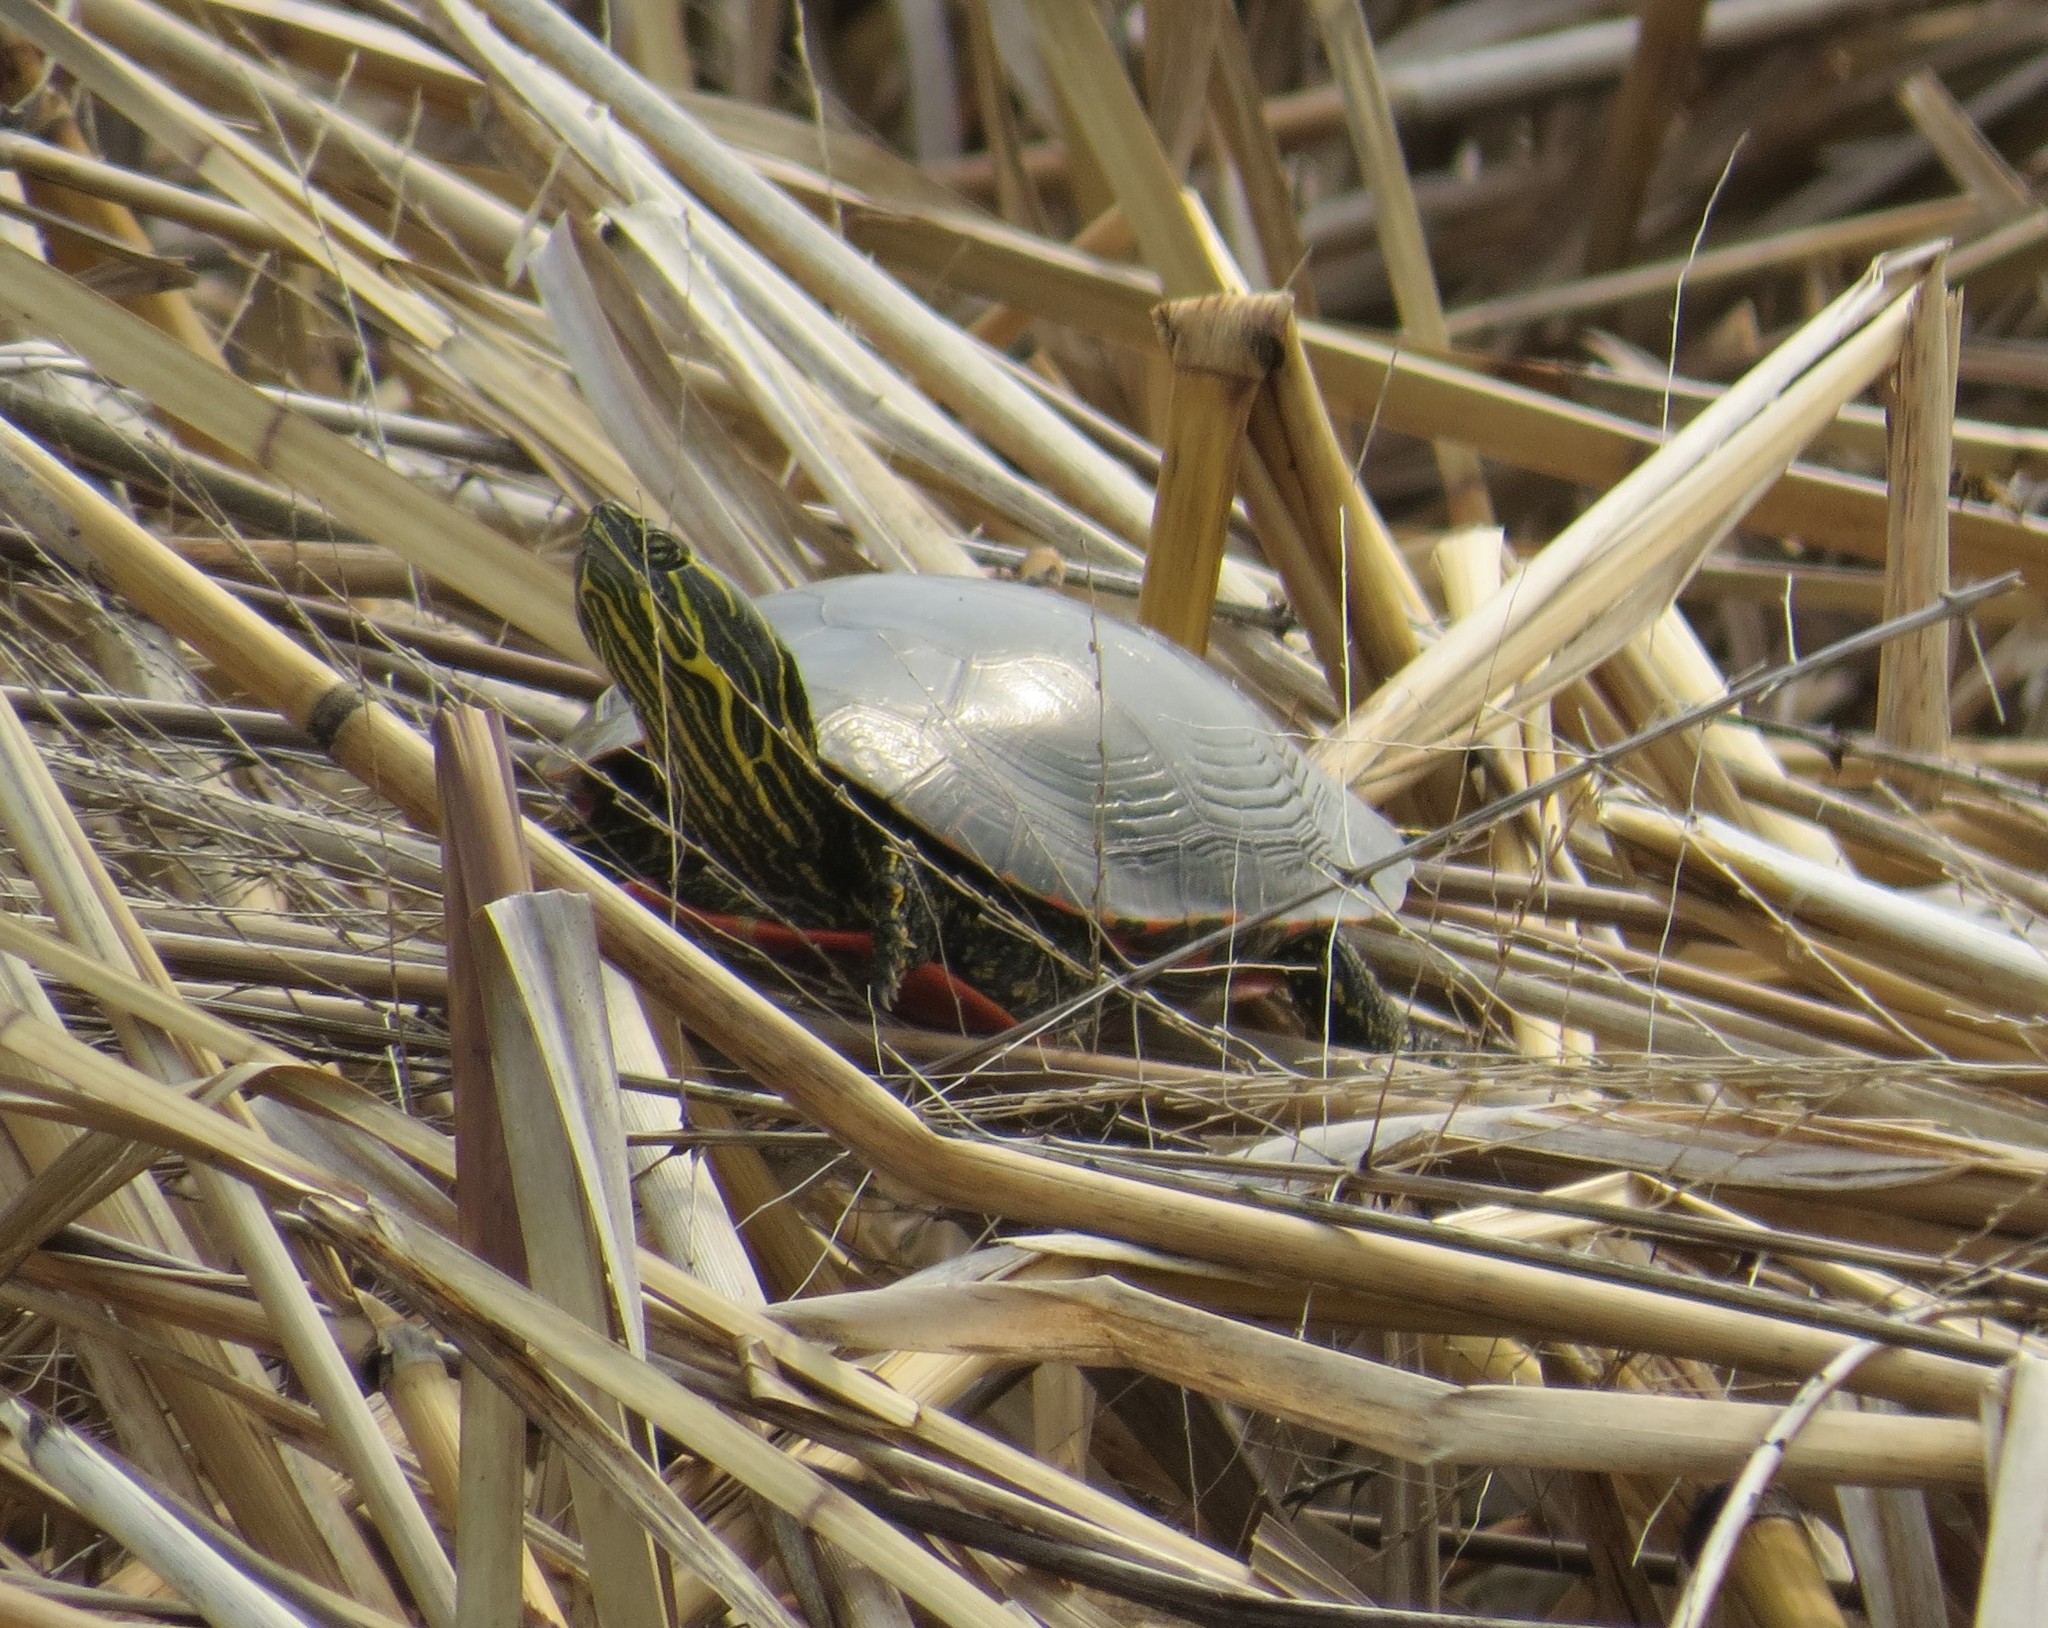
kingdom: Animalia
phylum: Chordata
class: Testudines
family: Emydidae
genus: Chrysemys
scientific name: Chrysemys picta
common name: Painted turtle
